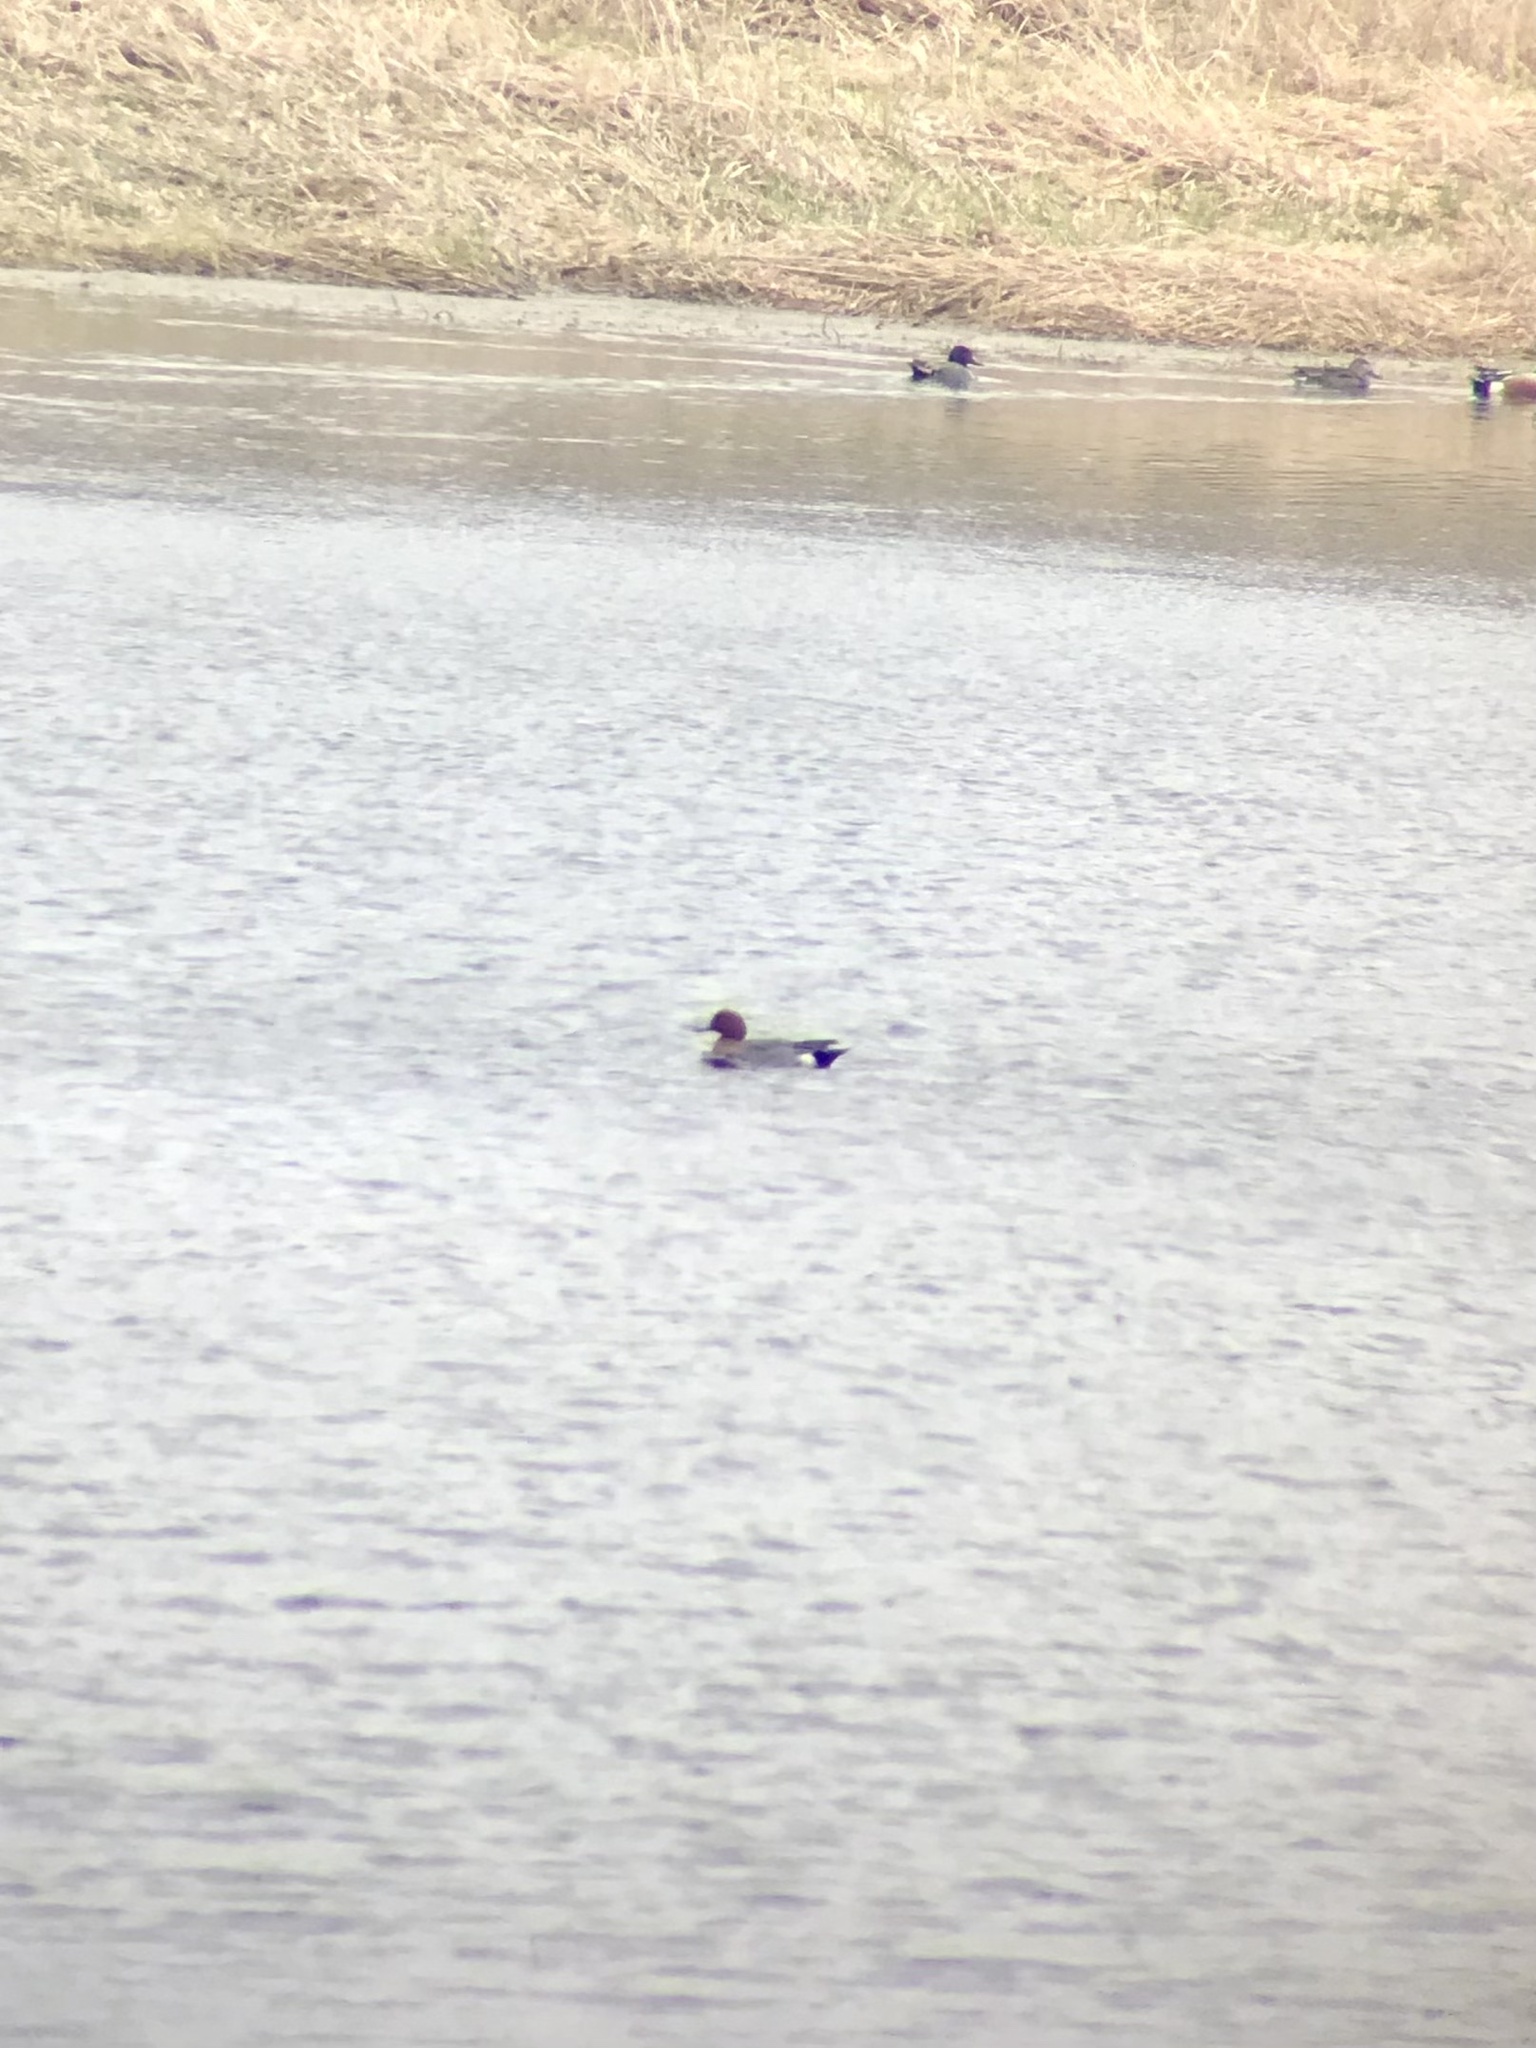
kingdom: Animalia
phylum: Chordata
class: Aves
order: Anseriformes
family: Anatidae
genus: Mareca
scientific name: Mareca penelope
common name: Eurasian wigeon
